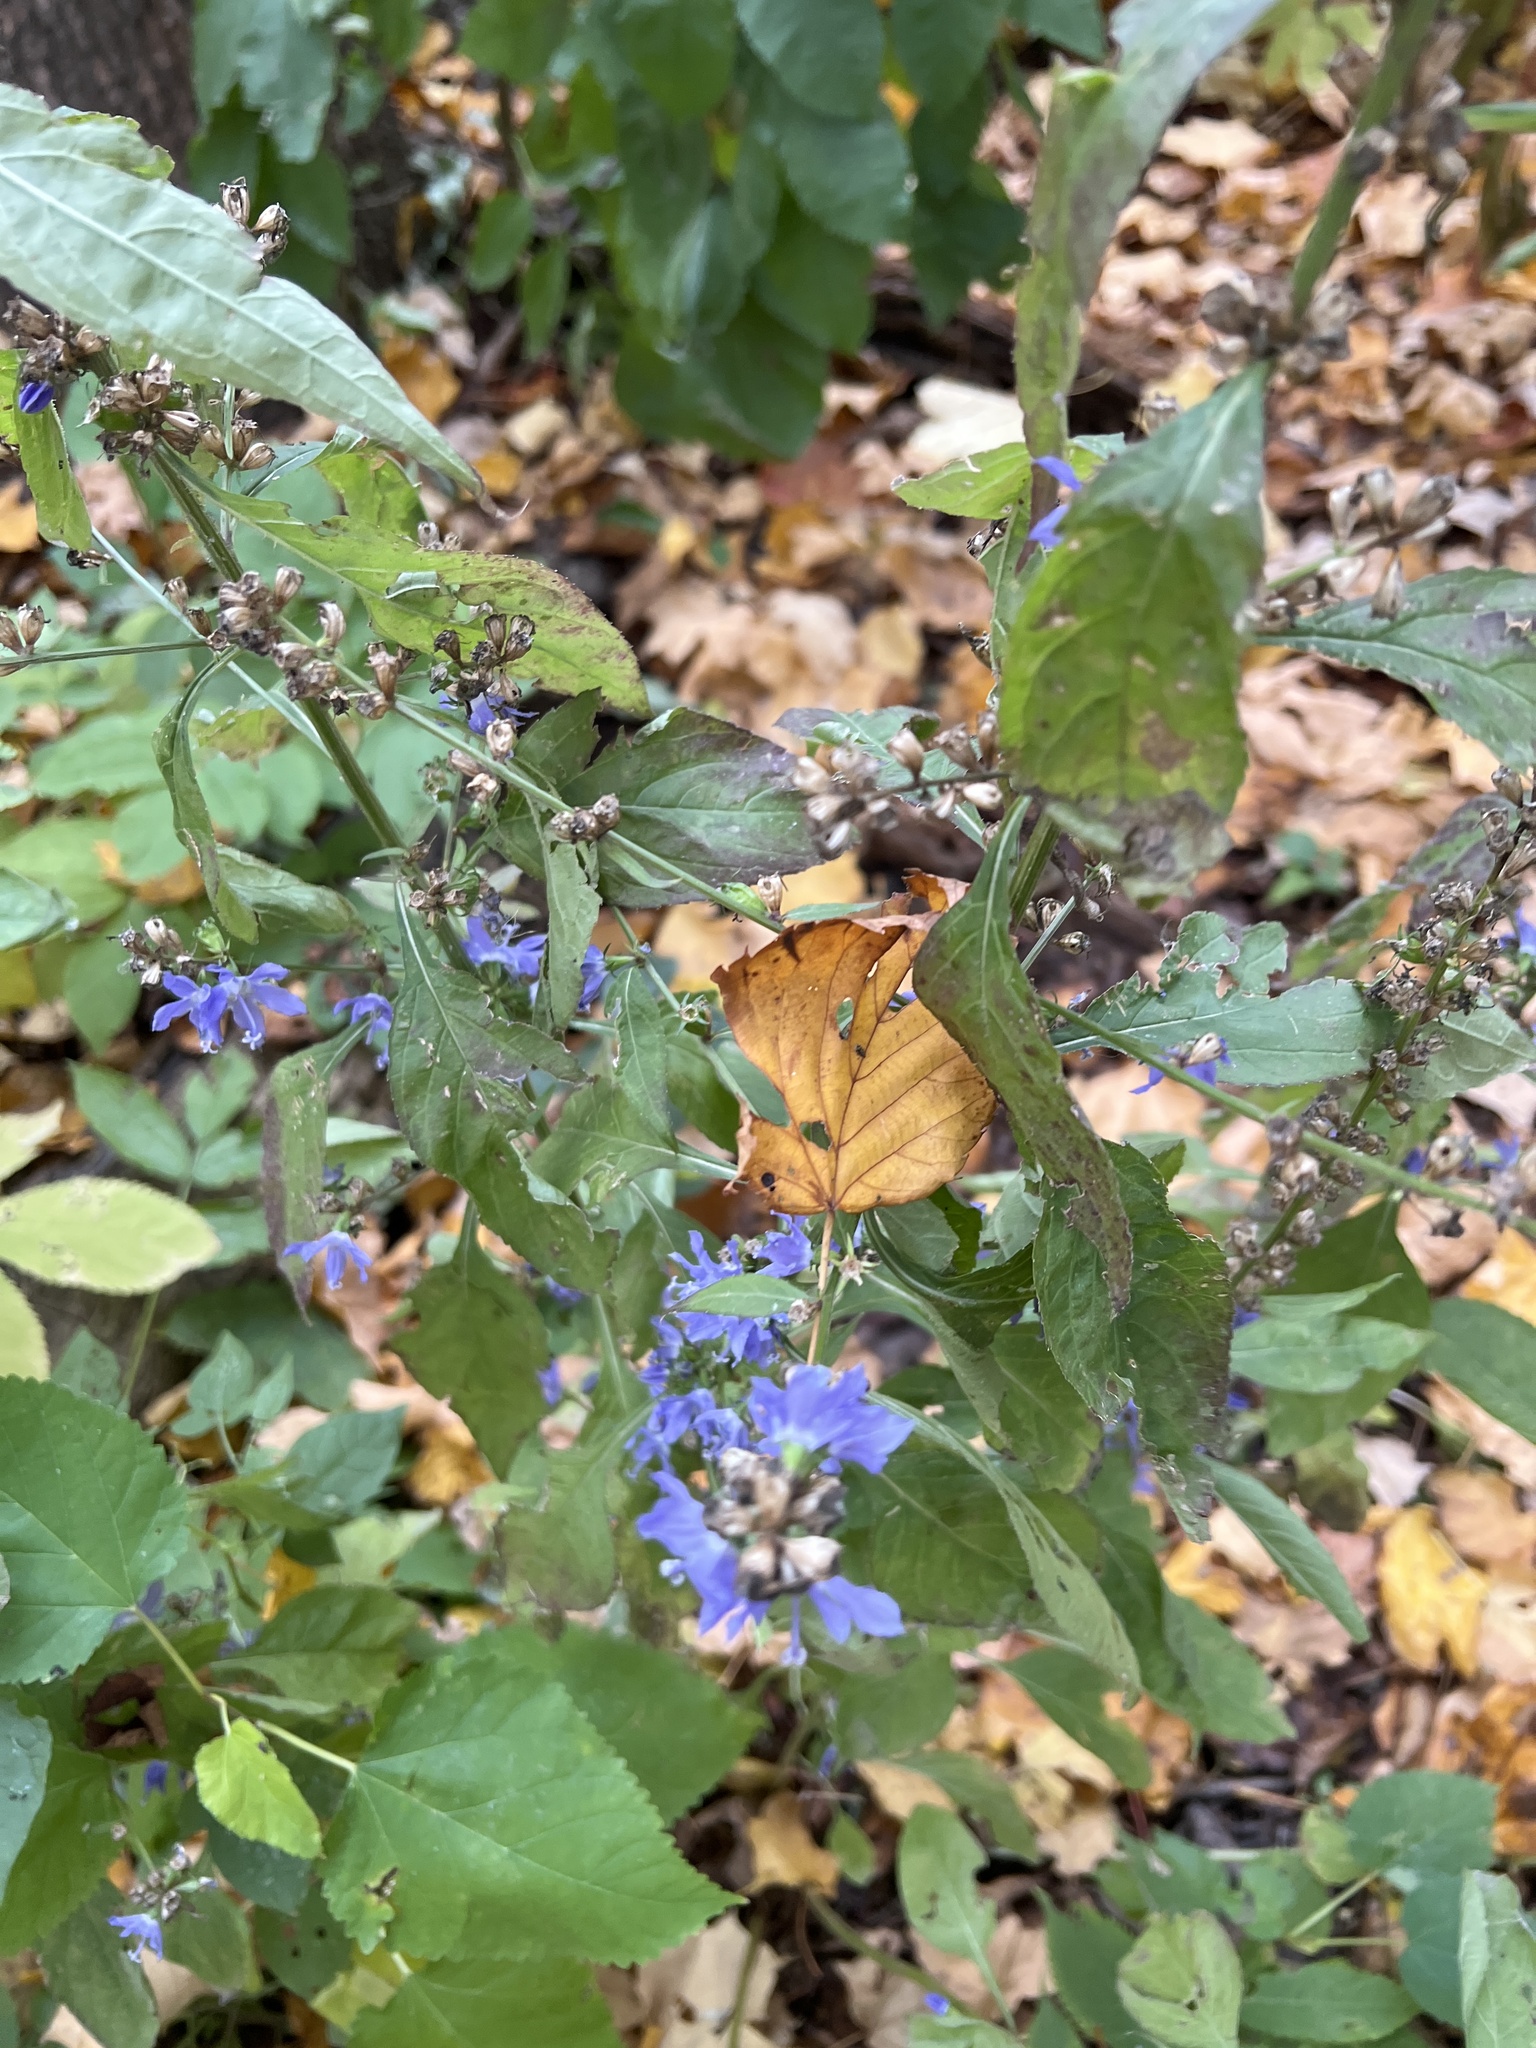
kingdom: Plantae
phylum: Tracheophyta
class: Magnoliopsida
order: Asterales
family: Campanulaceae
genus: Campanulastrum
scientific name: Campanulastrum americanum
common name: American bellflower
